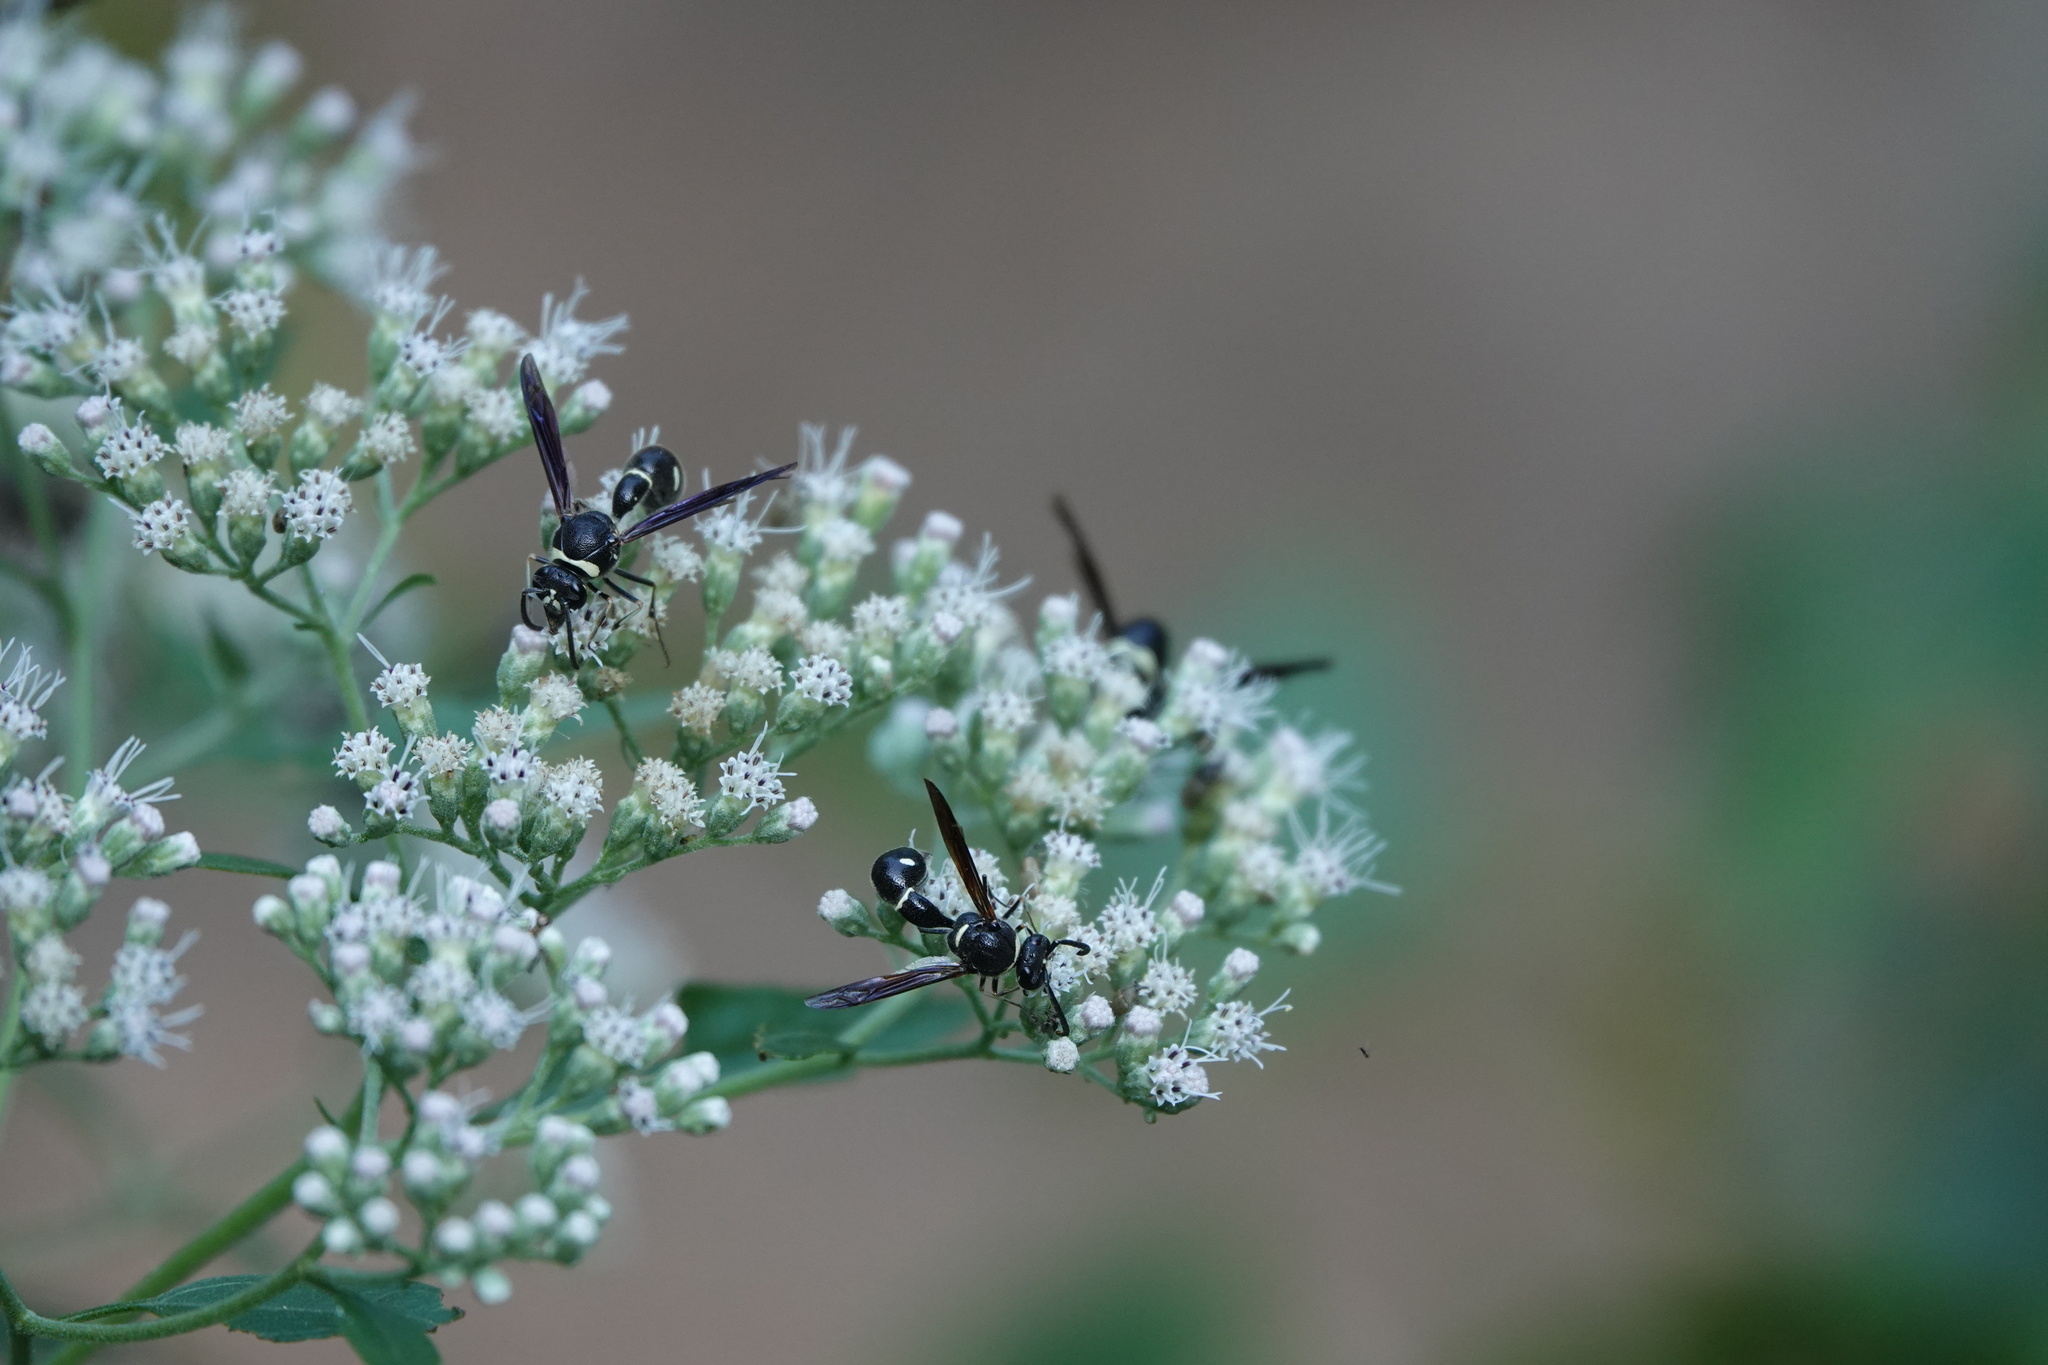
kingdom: Animalia
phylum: Arthropoda
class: Insecta
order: Hymenoptera
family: Vespidae
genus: Eumenes
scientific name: Eumenes fraternus
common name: Fraternal potter wasp
